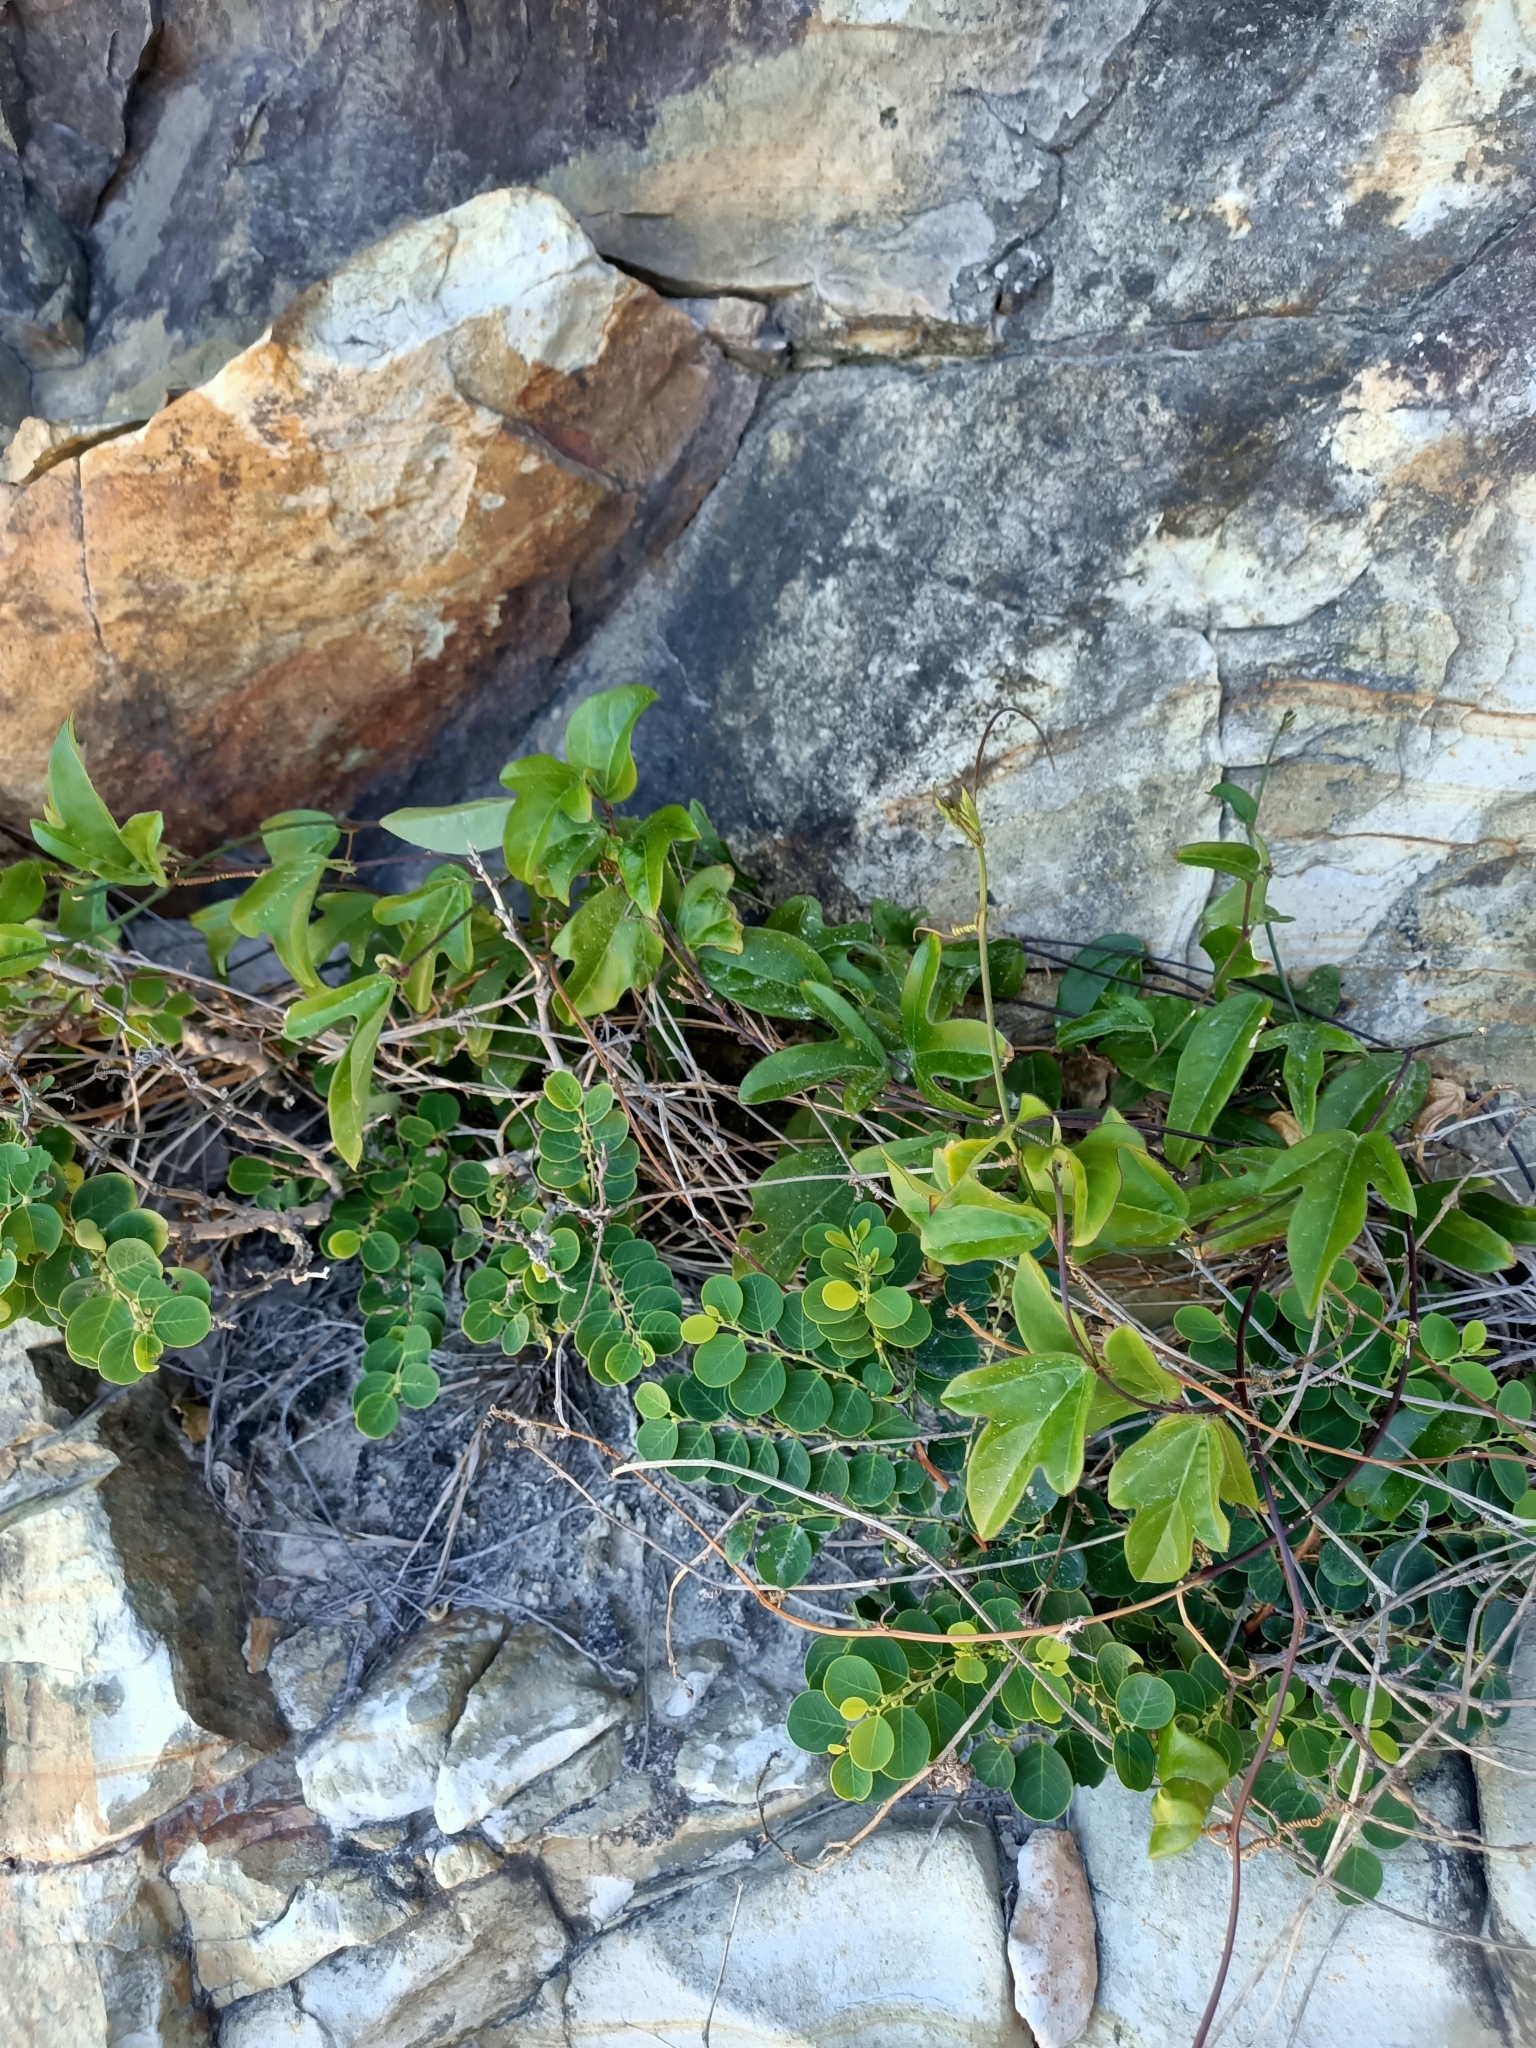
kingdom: Plantae
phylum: Tracheophyta
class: Magnoliopsida
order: Malpighiales
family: Passifloraceae
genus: Passiflora
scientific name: Passiflora pallida
